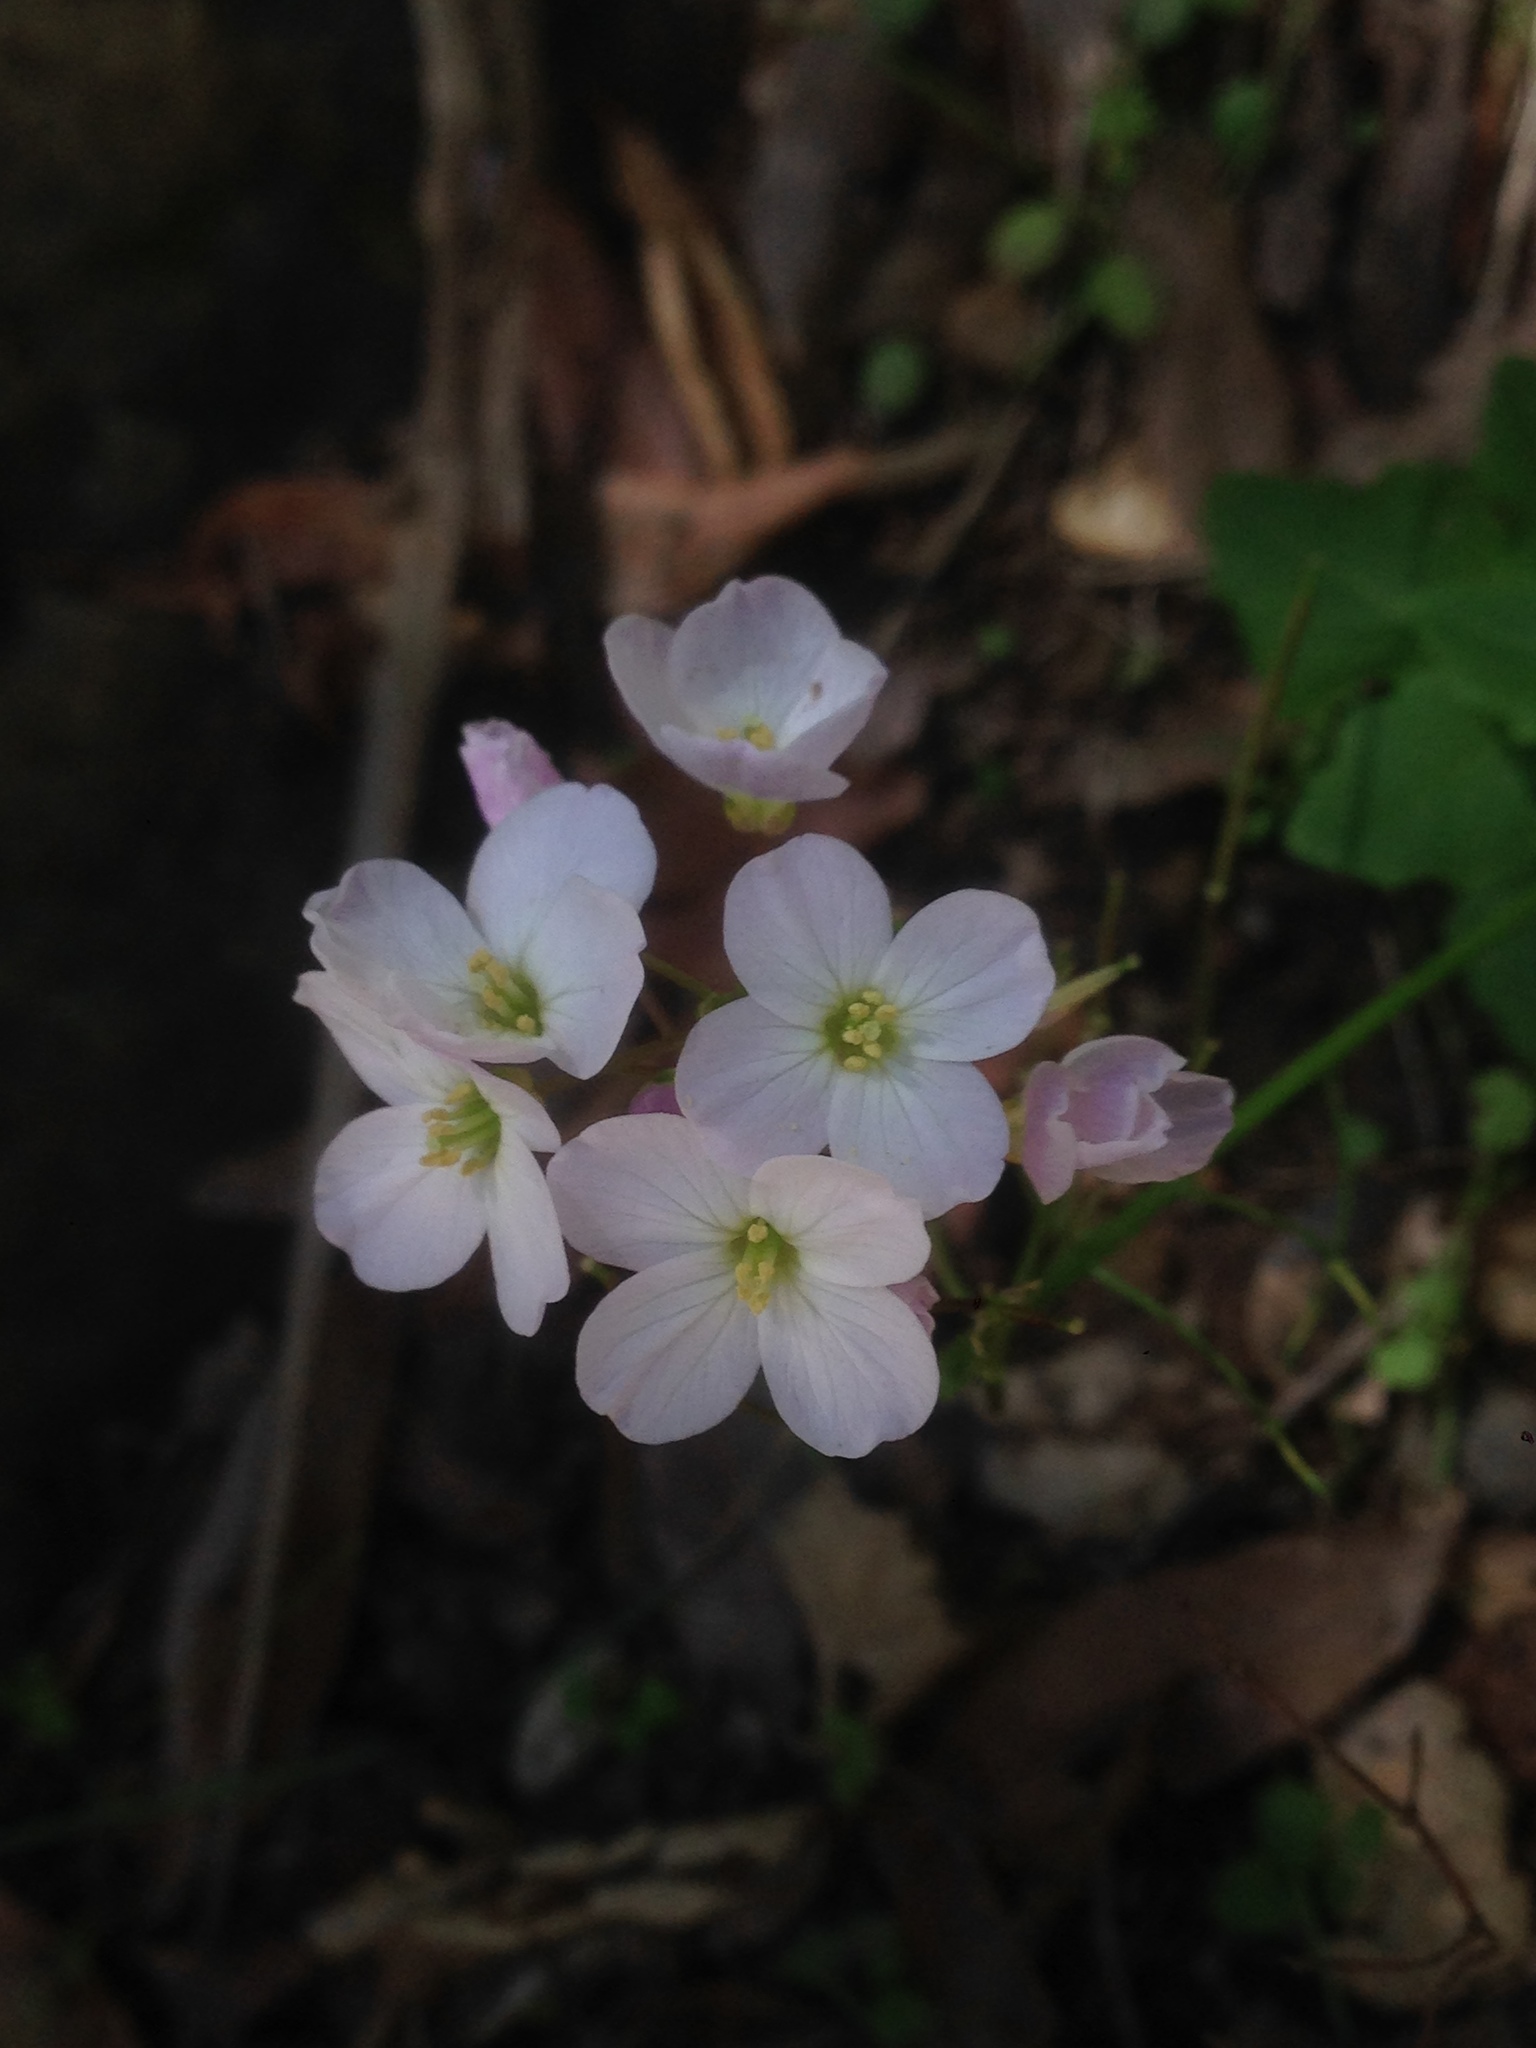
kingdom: Plantae
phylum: Tracheophyta
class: Magnoliopsida
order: Brassicales
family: Brassicaceae
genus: Cardamine
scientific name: Cardamine californica
